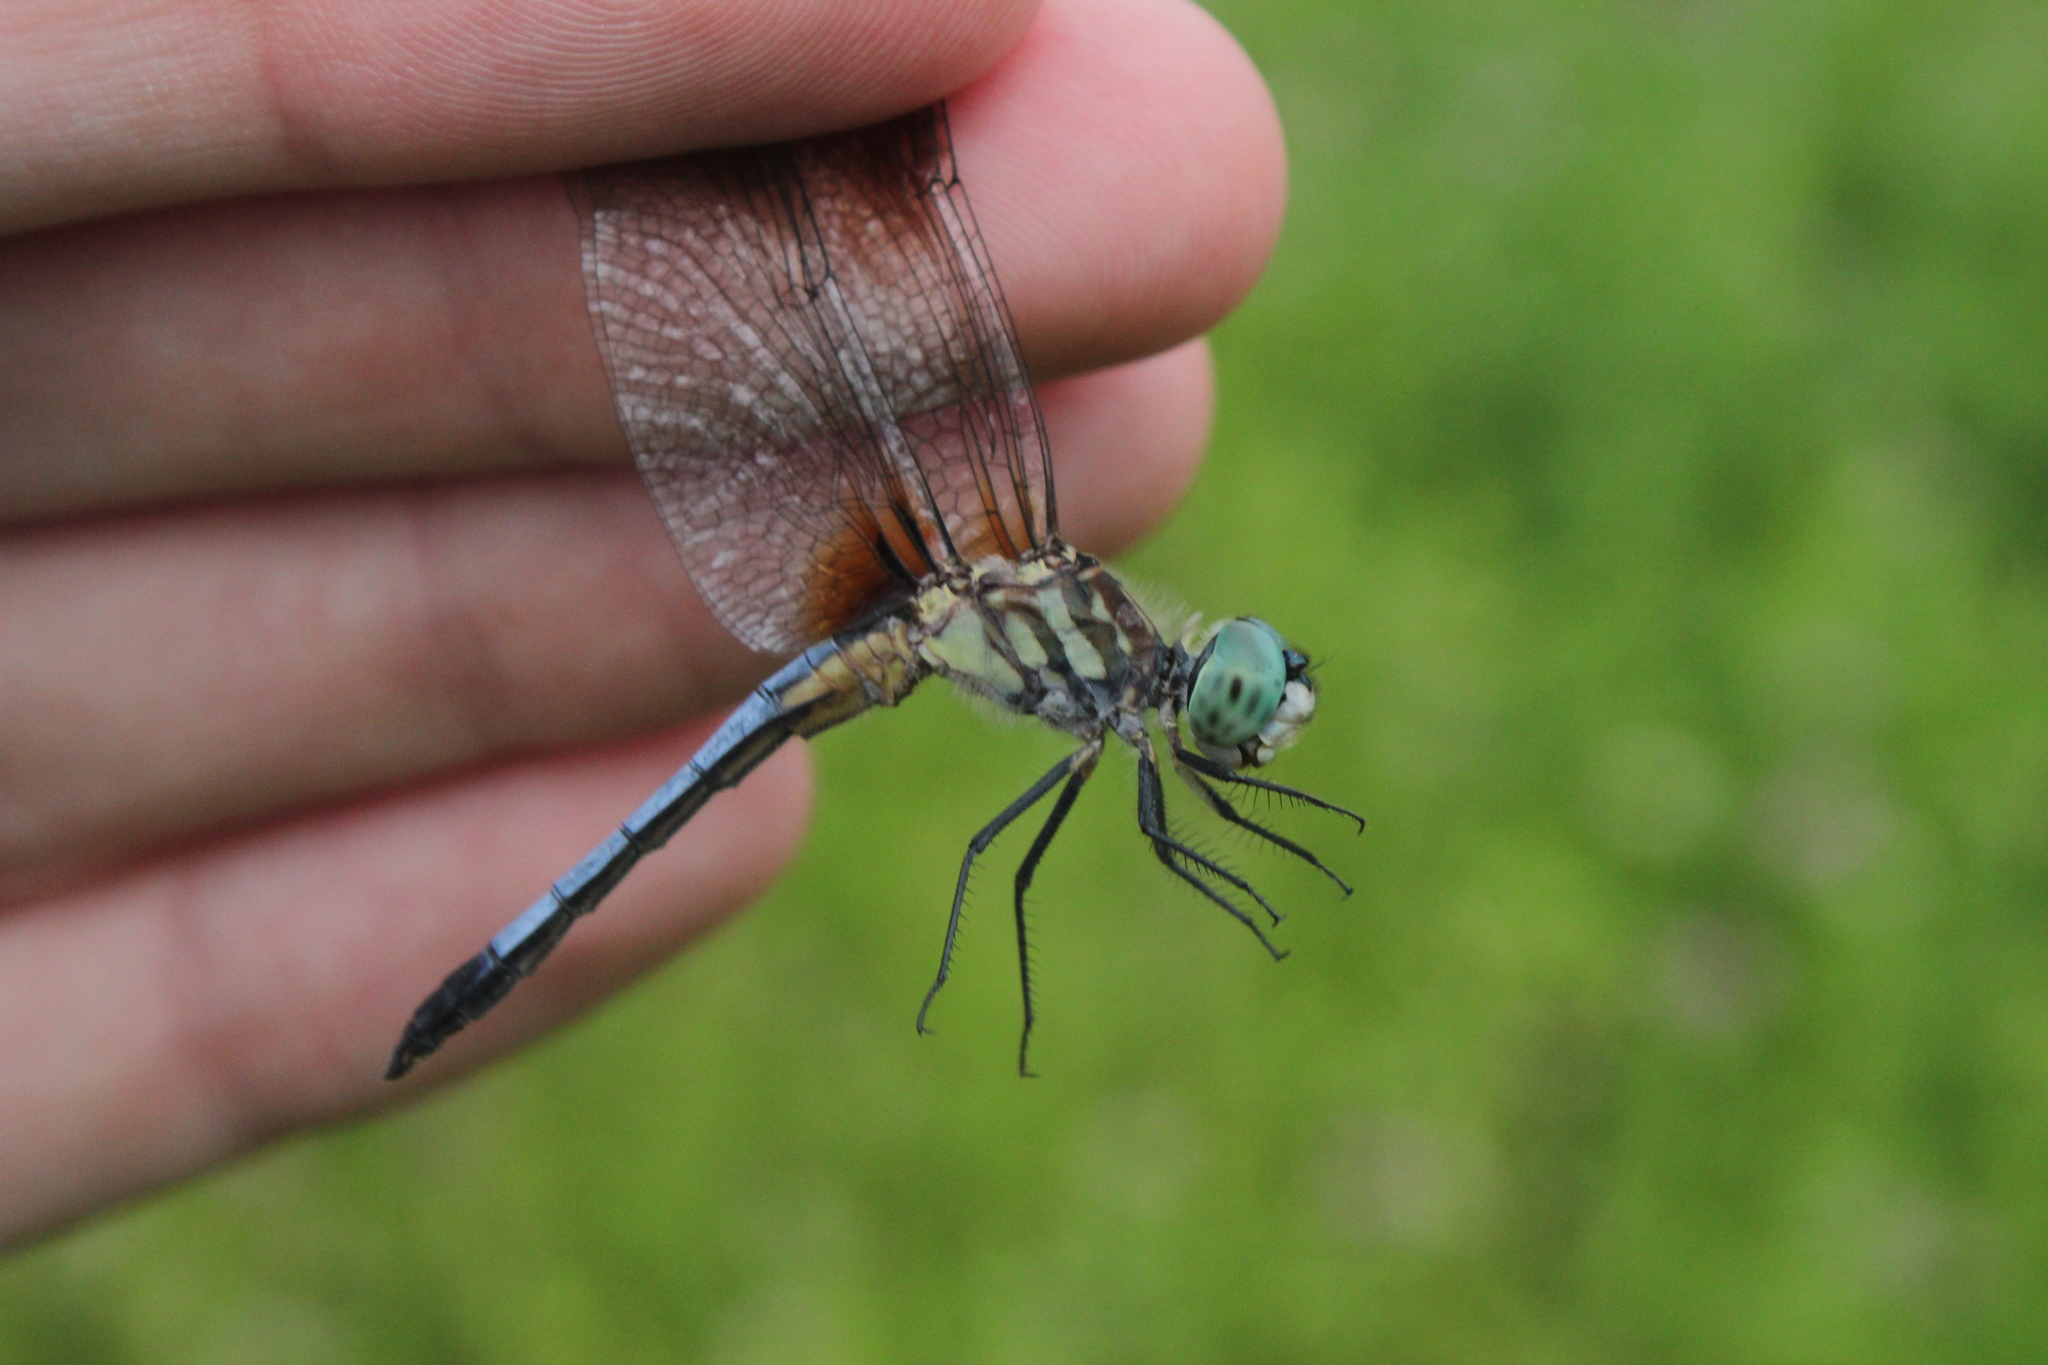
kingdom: Animalia
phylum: Arthropoda
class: Insecta
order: Odonata
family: Libellulidae
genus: Pachydiplax
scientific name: Pachydiplax longipennis
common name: Blue dasher
